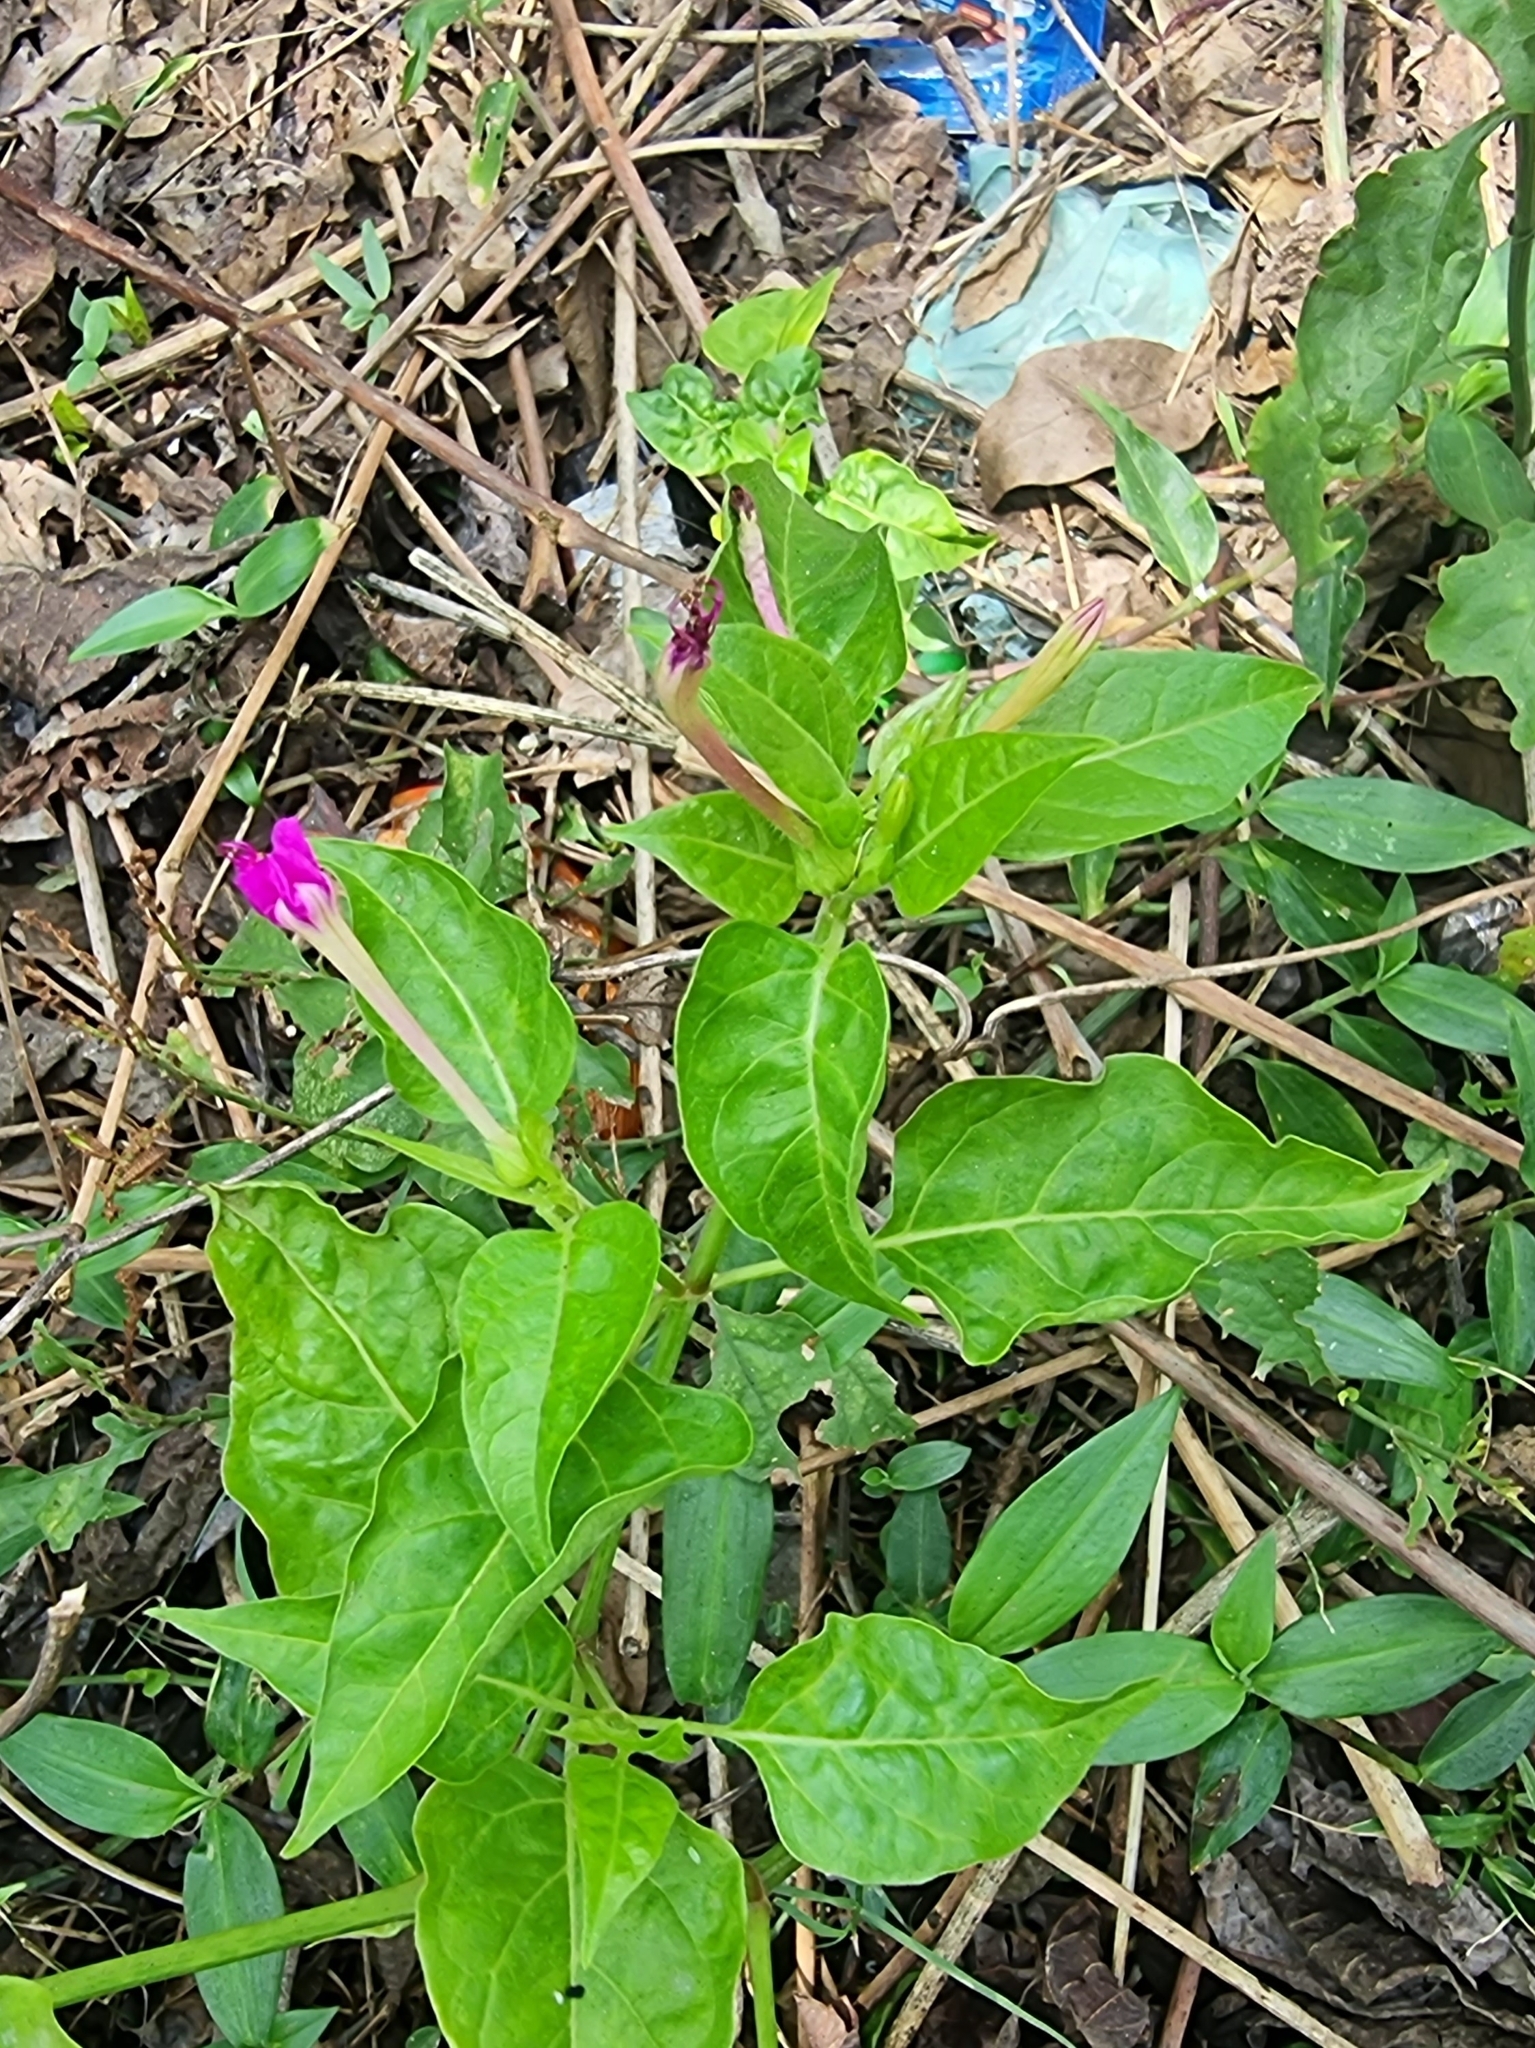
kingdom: Plantae
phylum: Tracheophyta
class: Magnoliopsida
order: Caryophyllales
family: Nyctaginaceae
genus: Mirabilis
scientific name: Mirabilis jalapa
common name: Marvel-of-peru
